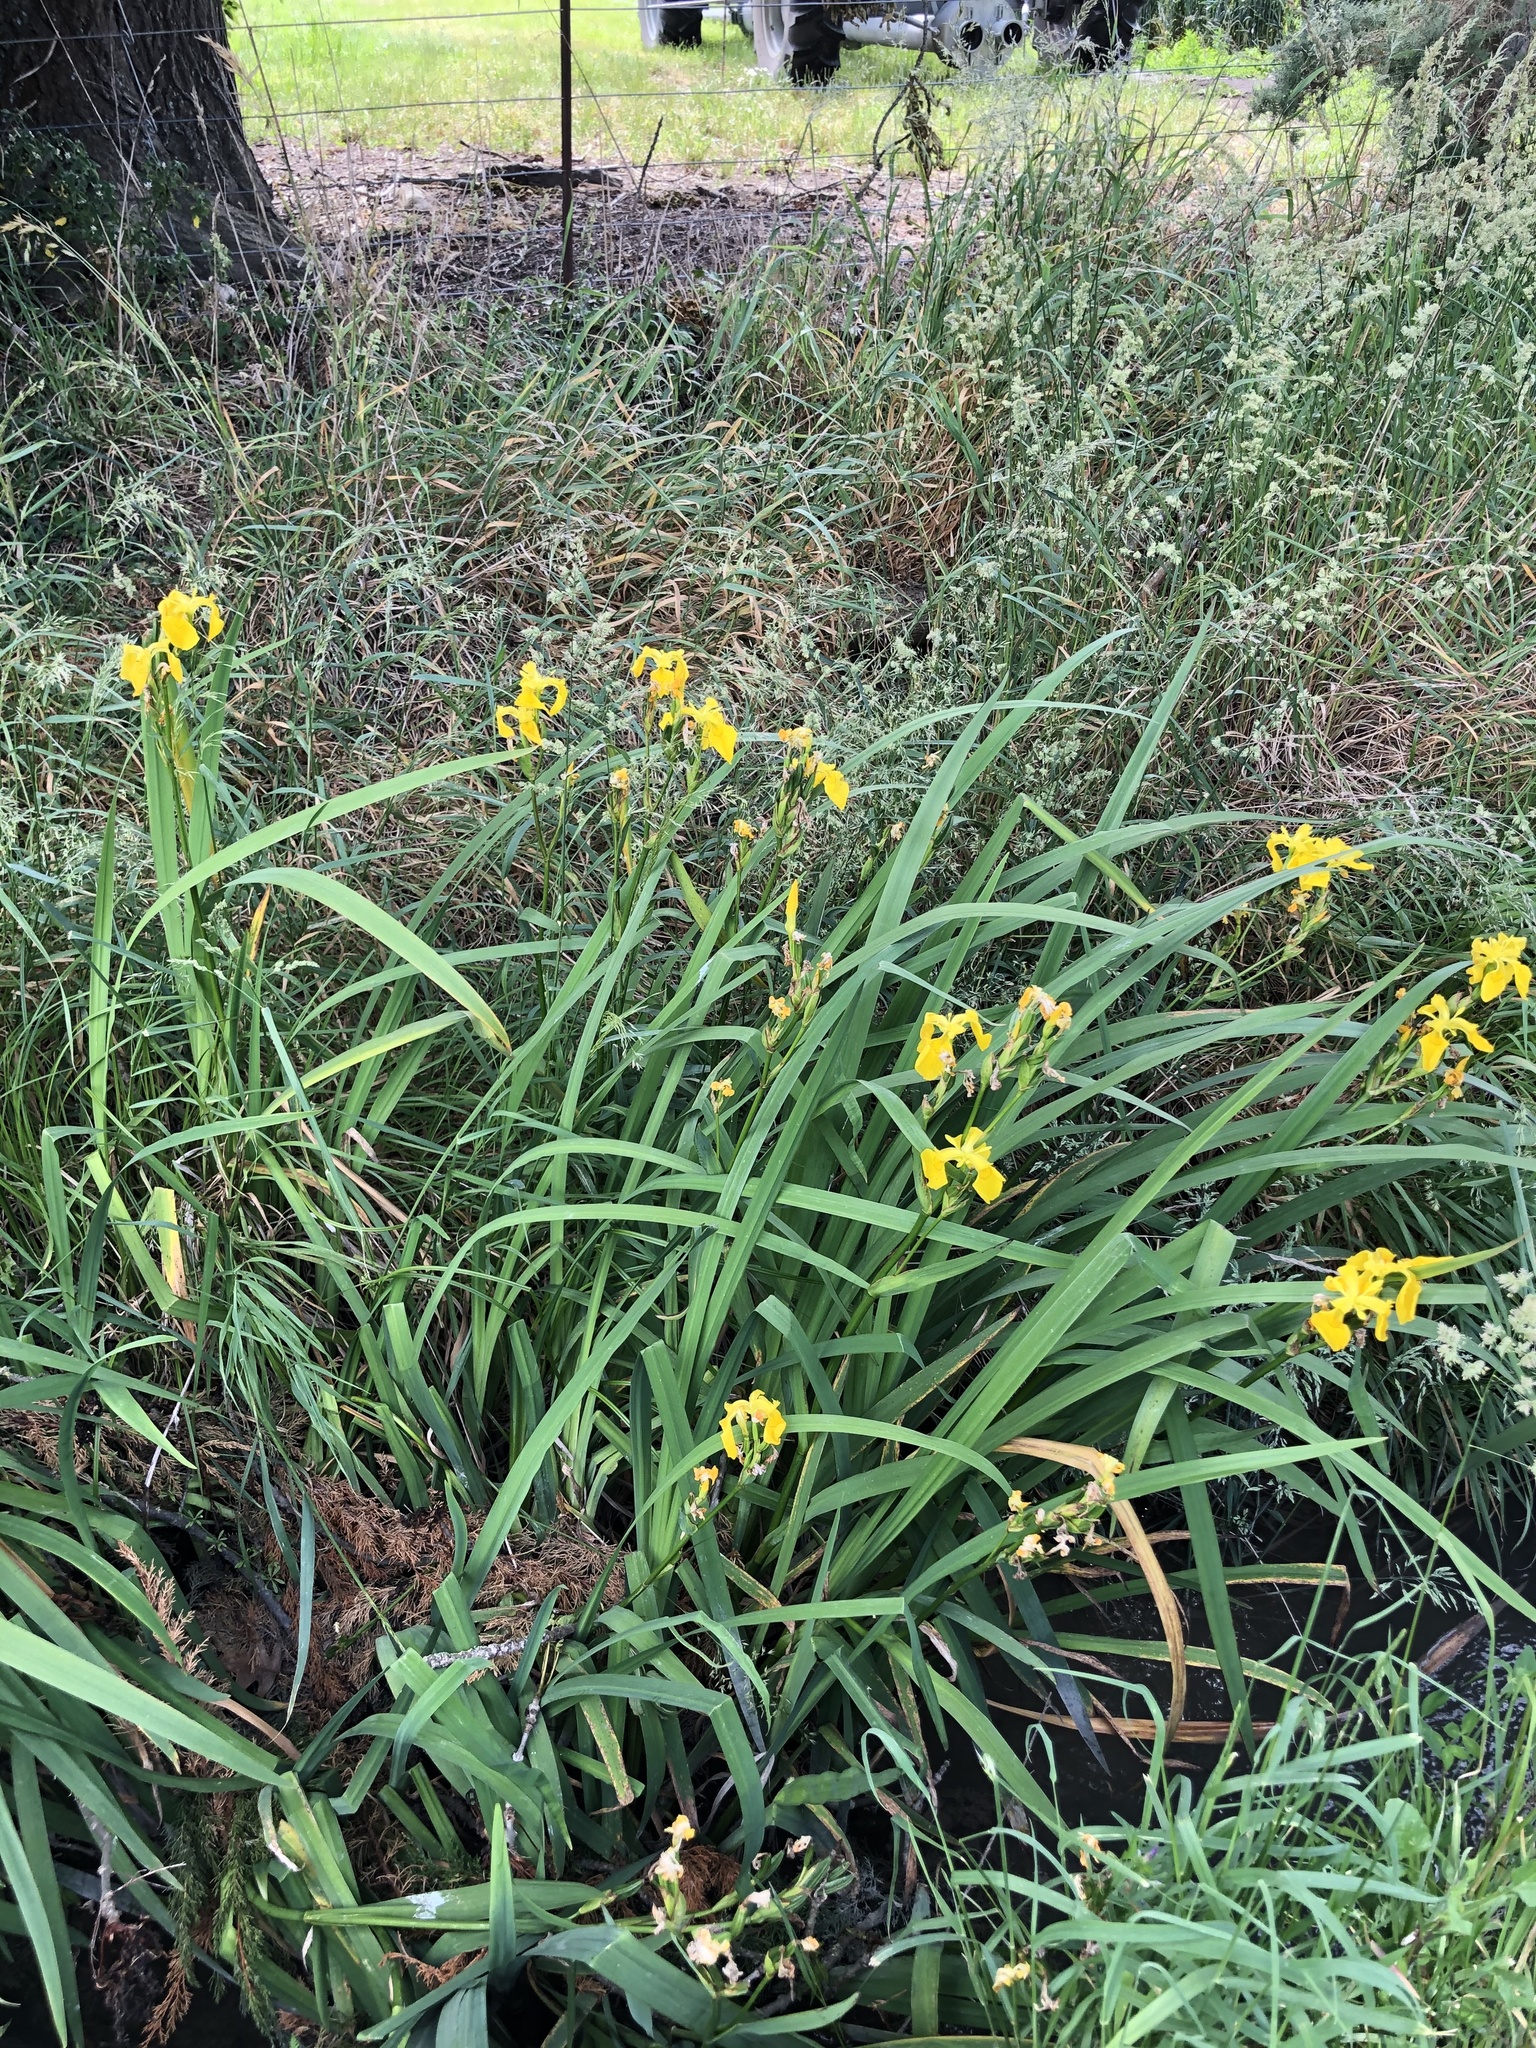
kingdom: Plantae
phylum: Tracheophyta
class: Liliopsida
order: Asparagales
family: Iridaceae
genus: Iris
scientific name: Iris pseudacorus
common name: Yellow flag
